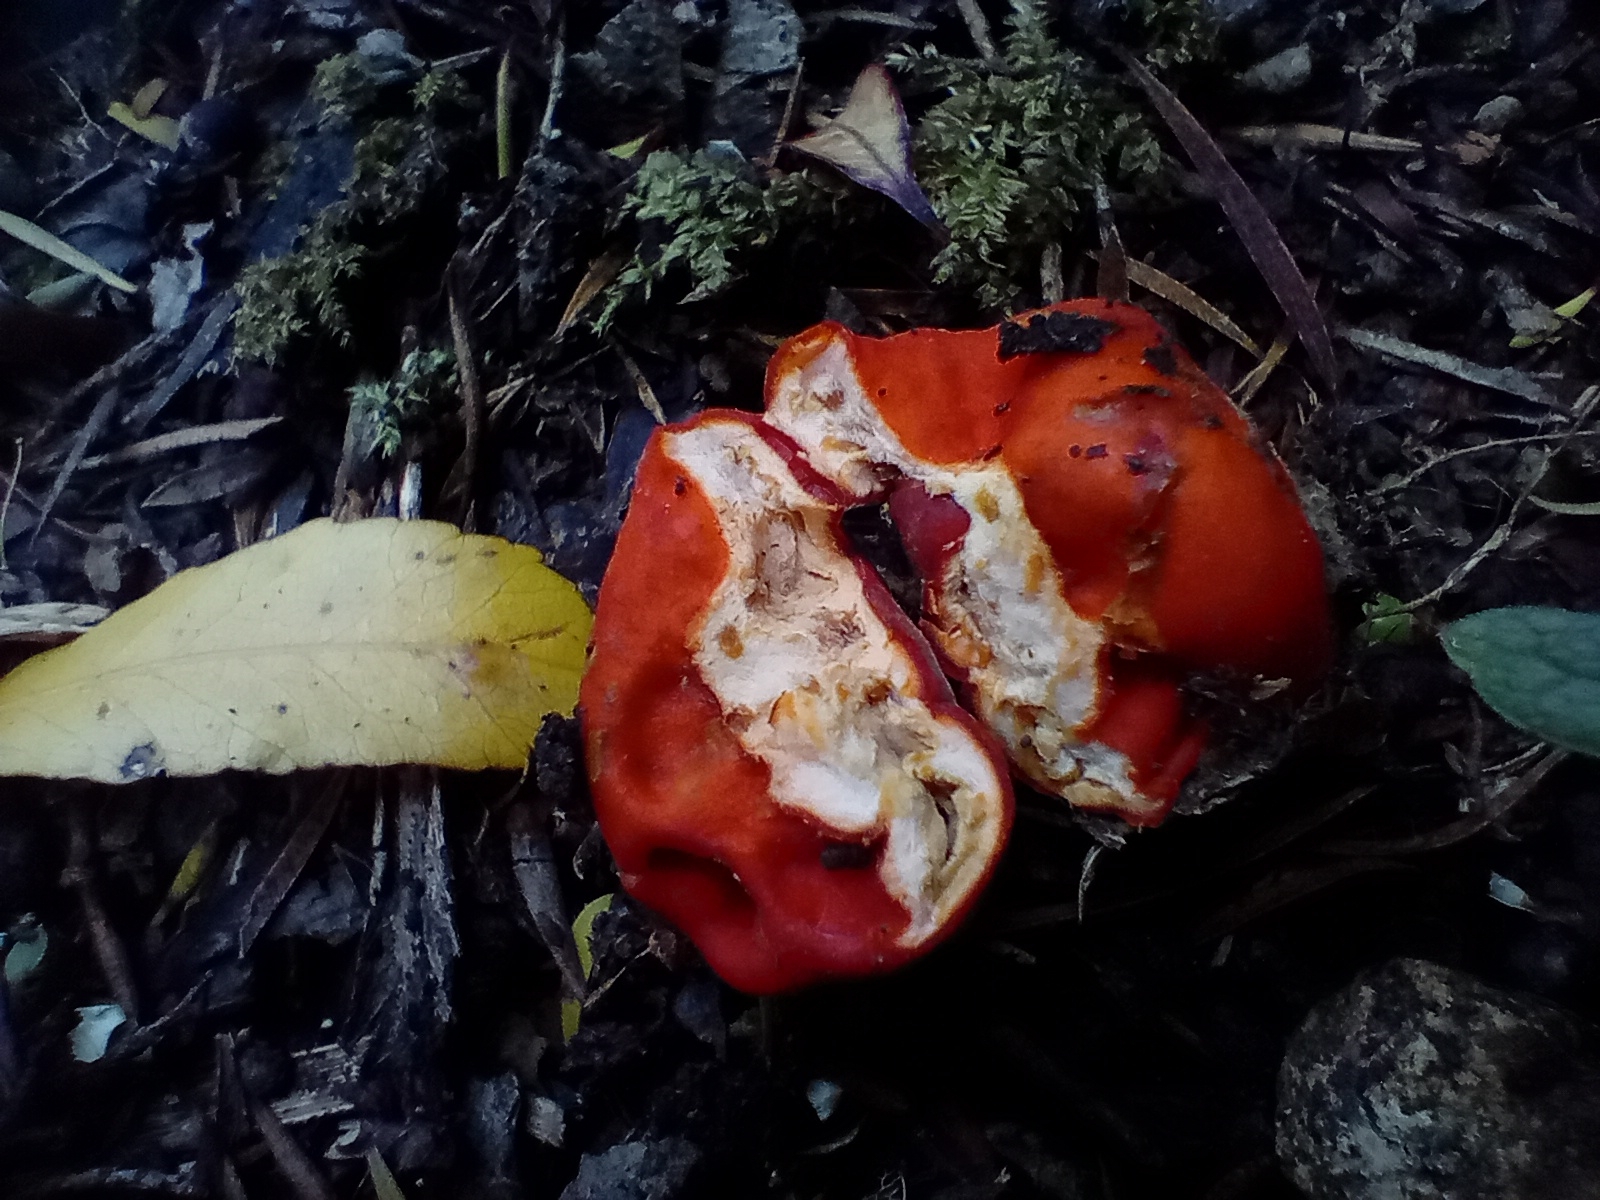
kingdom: Fungi
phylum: Ascomycota
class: Pezizomycetes
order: Pezizales
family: Pyronemataceae
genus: Paurocotylis
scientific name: Paurocotylis pila
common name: Scarlet berry truffle
